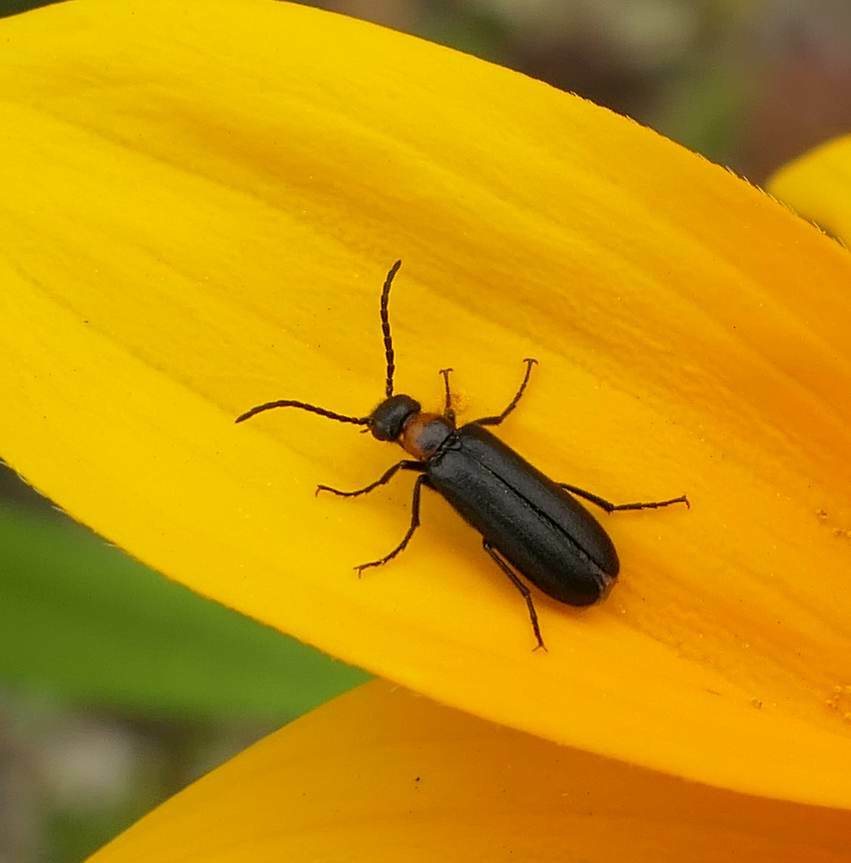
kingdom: Animalia
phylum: Arthropoda
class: Insecta
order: Coleoptera
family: Meloidae
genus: Nemognatha
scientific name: Nemognatha nemorensis
